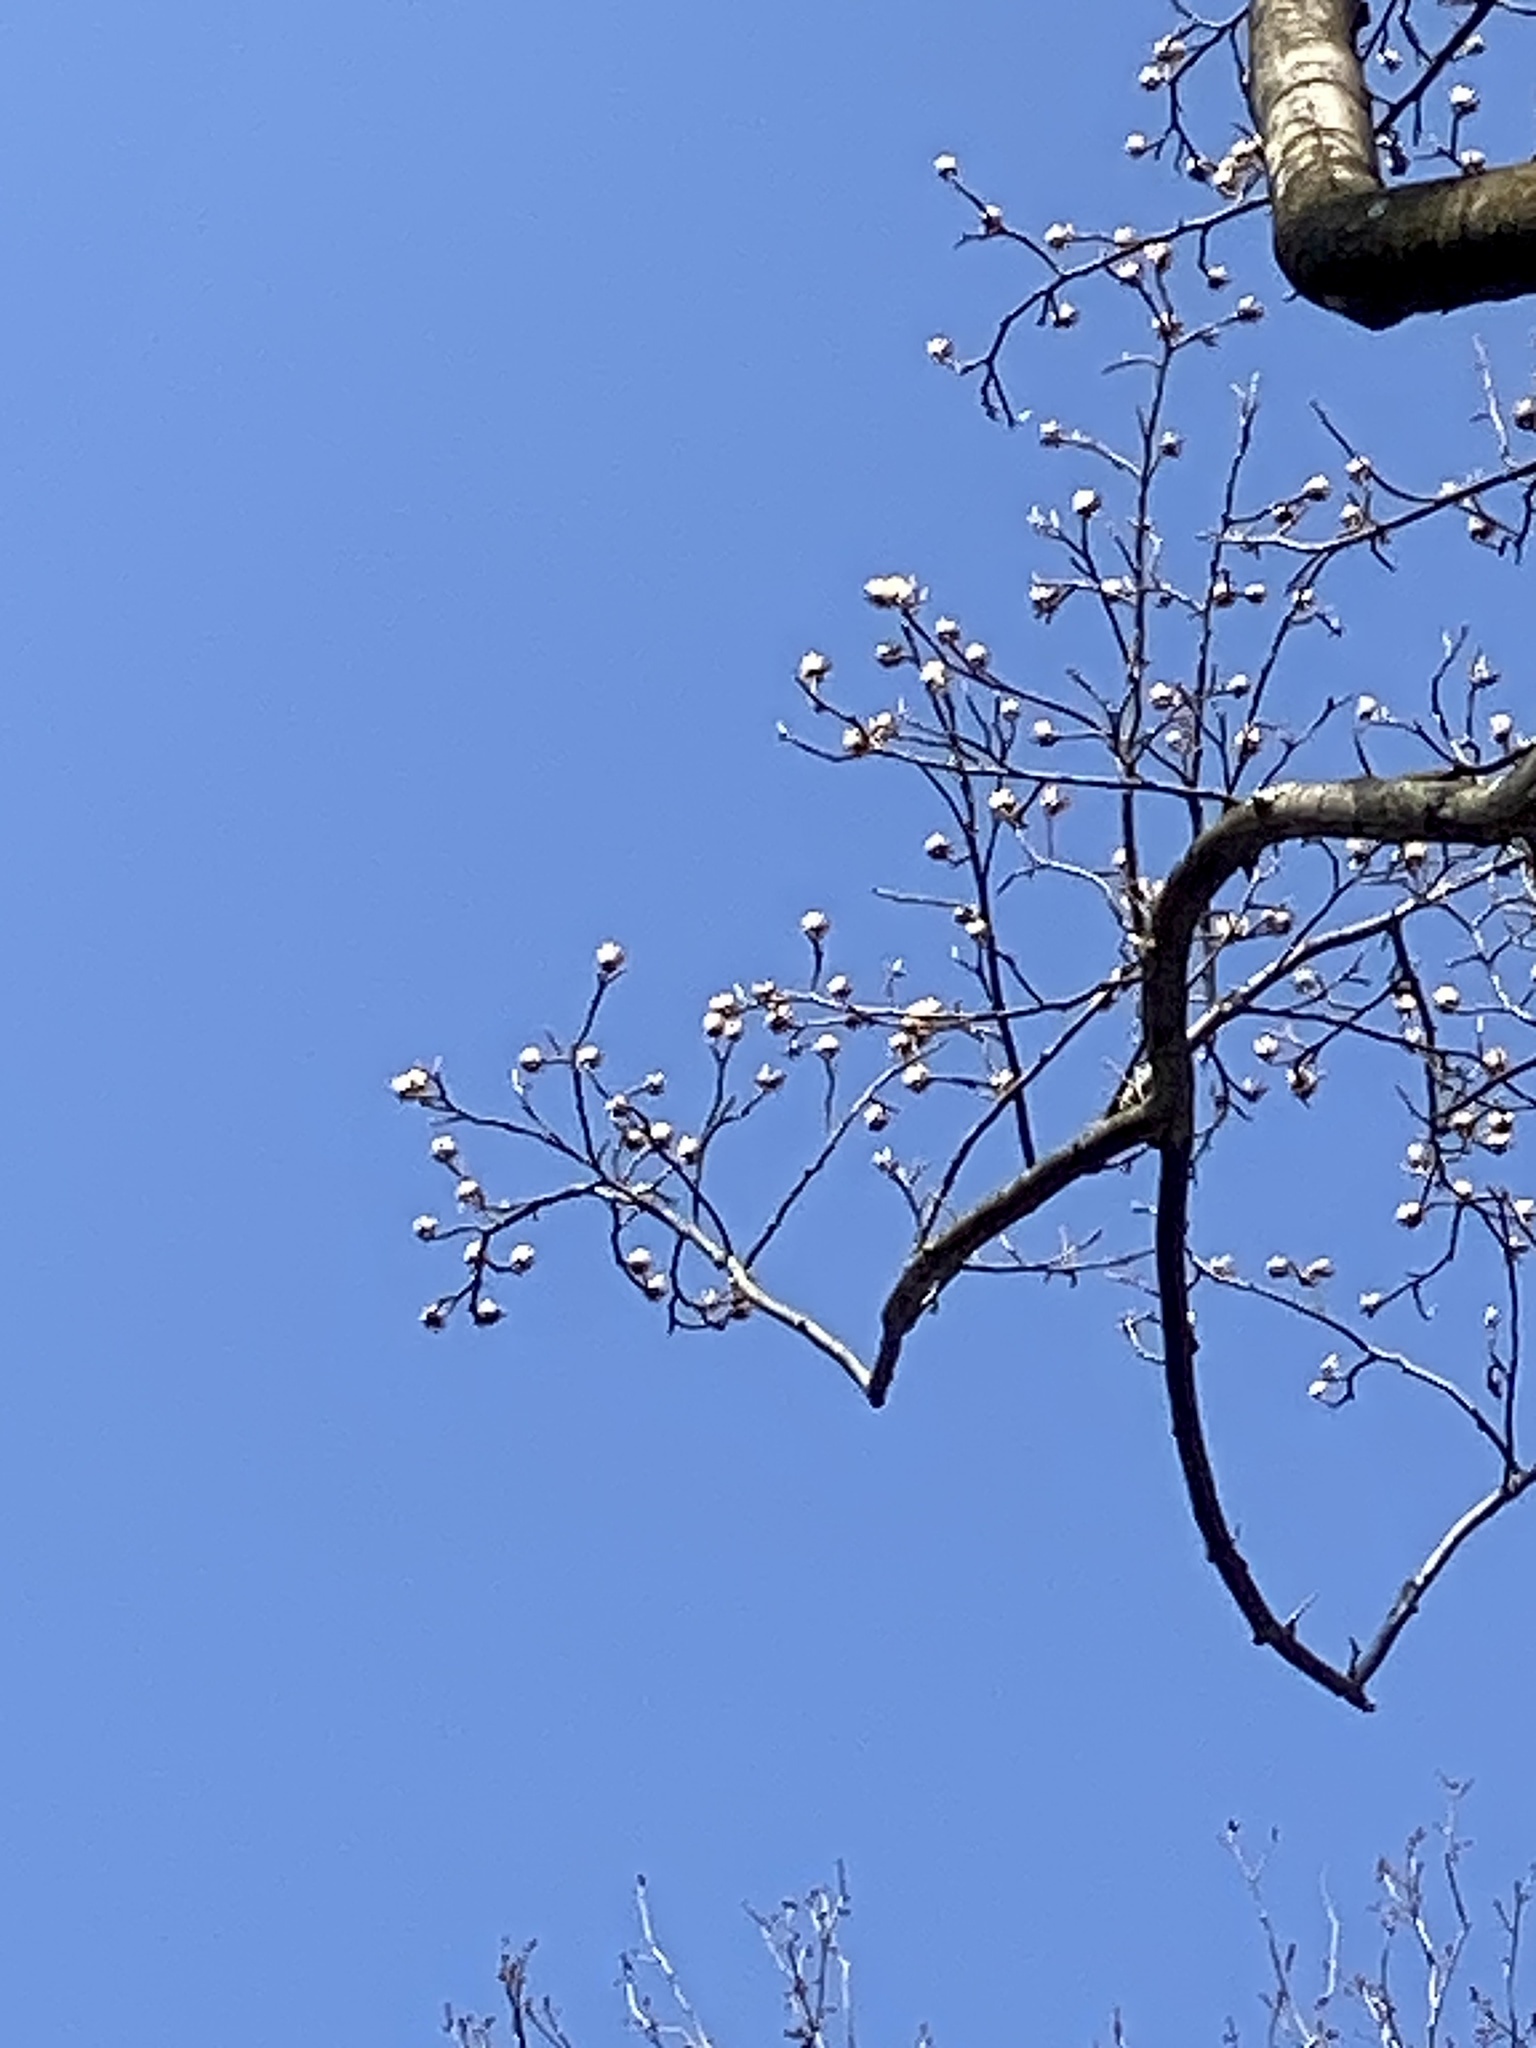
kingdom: Plantae
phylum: Tracheophyta
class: Magnoliopsida
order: Magnoliales
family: Magnoliaceae
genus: Liriodendron
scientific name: Liriodendron tulipifera
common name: Tulip tree
